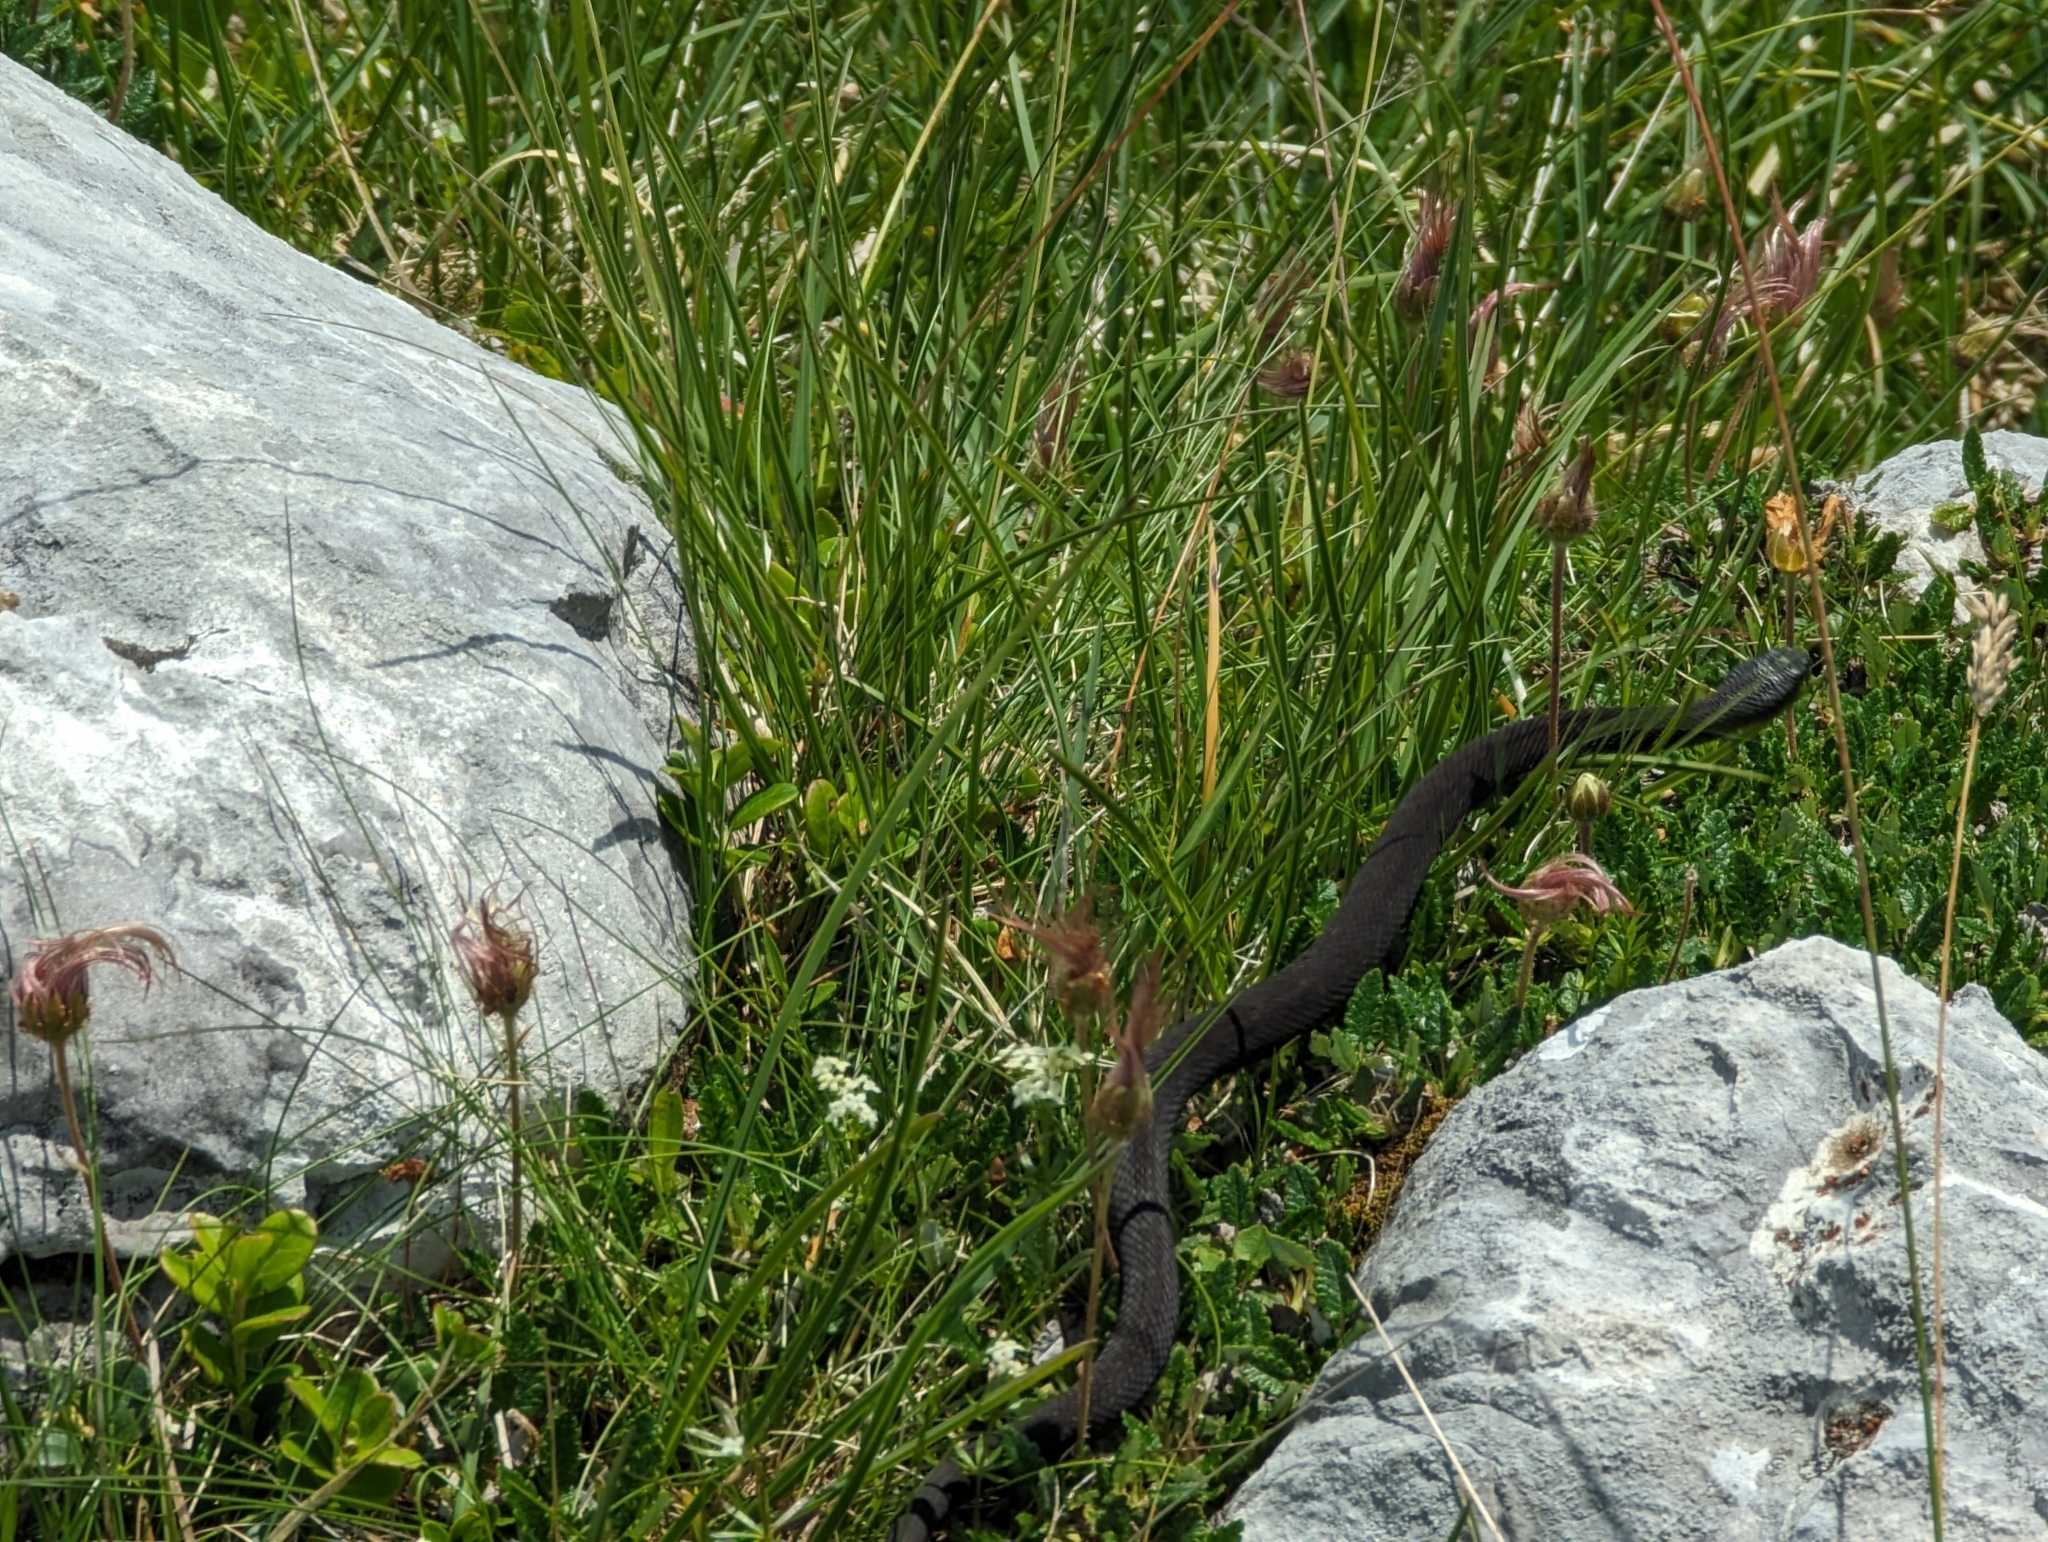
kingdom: Animalia
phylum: Chordata
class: Squamata
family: Viperidae
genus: Vipera
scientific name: Vipera berus
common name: Adder
